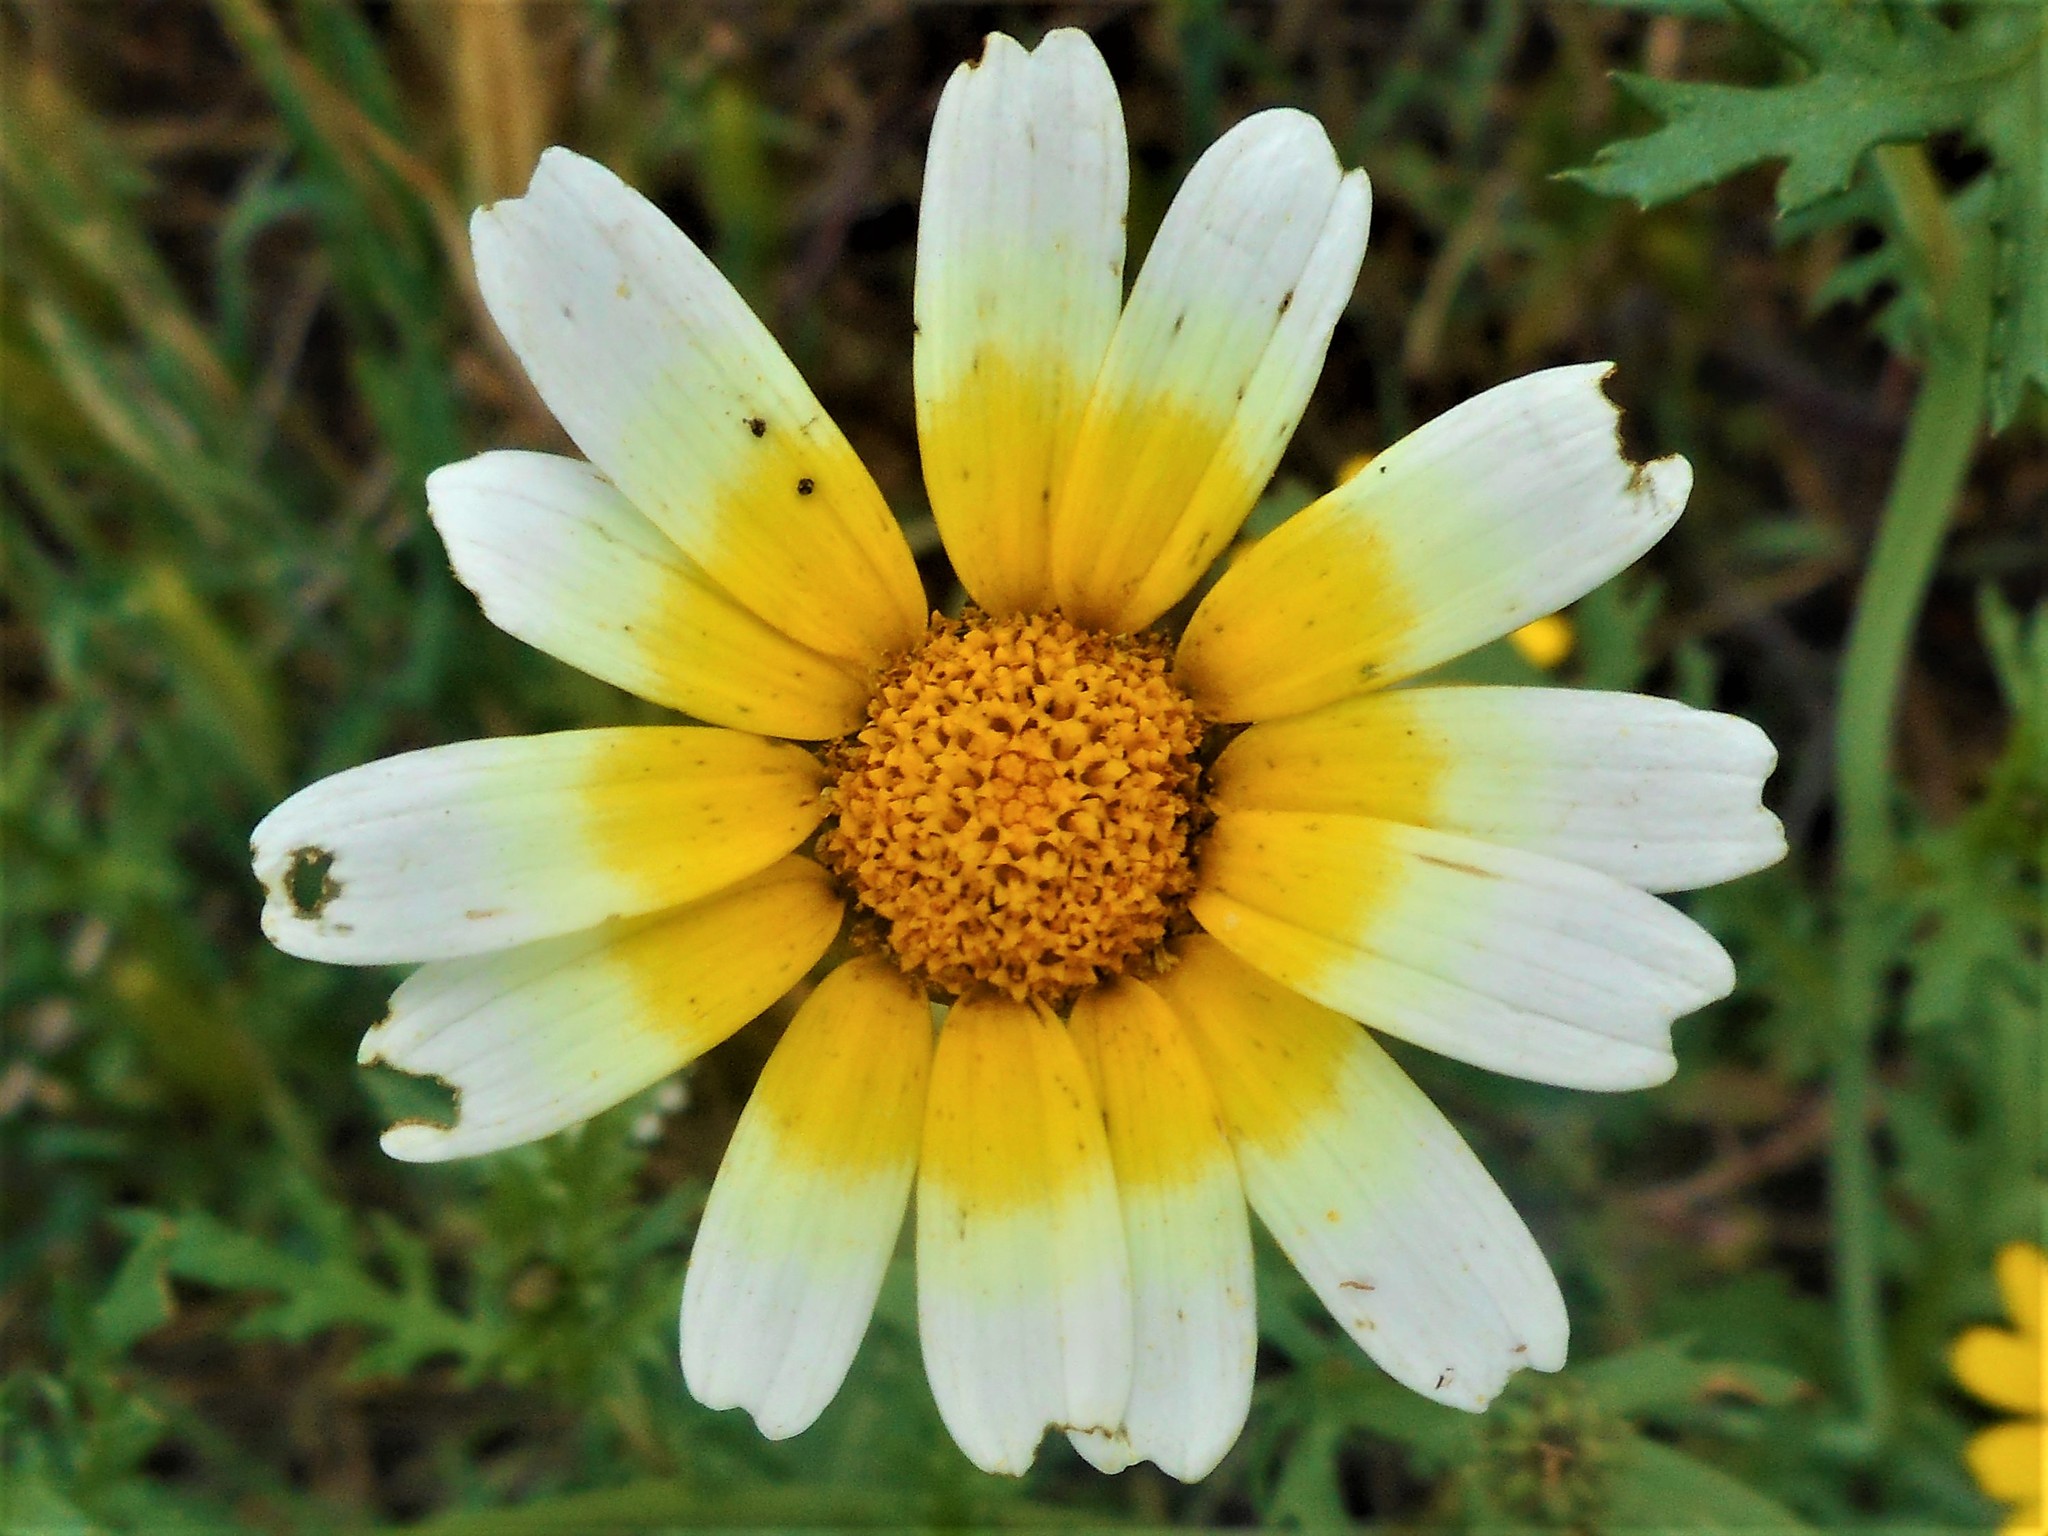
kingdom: Plantae
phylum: Tracheophyta
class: Magnoliopsida
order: Asterales
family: Asteraceae
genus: Glebionis
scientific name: Glebionis coronaria
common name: Crowndaisy
